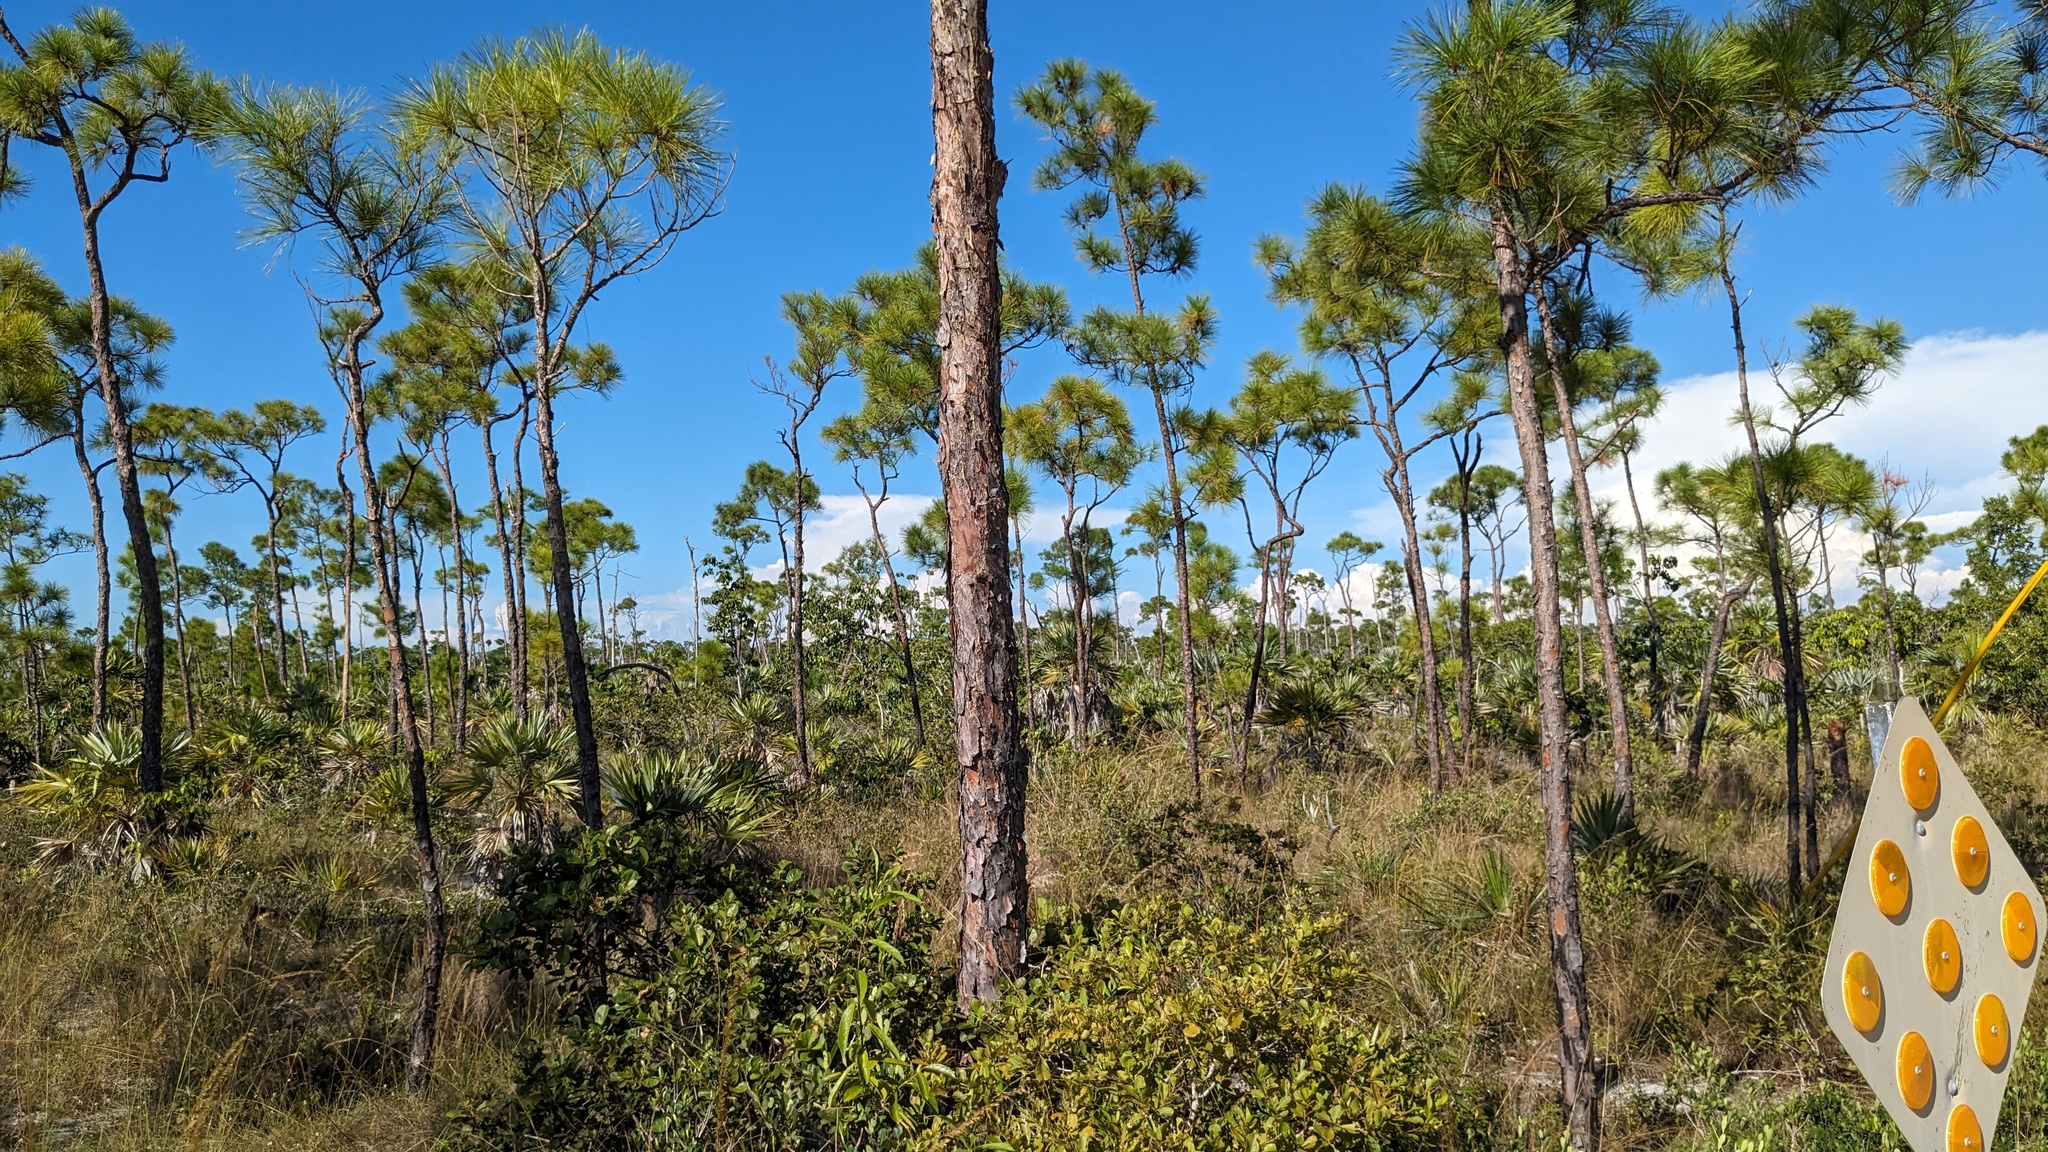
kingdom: Plantae
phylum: Tracheophyta
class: Pinopsida
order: Pinales
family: Pinaceae
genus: Pinus
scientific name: Pinus elliottii
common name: Slash pine
